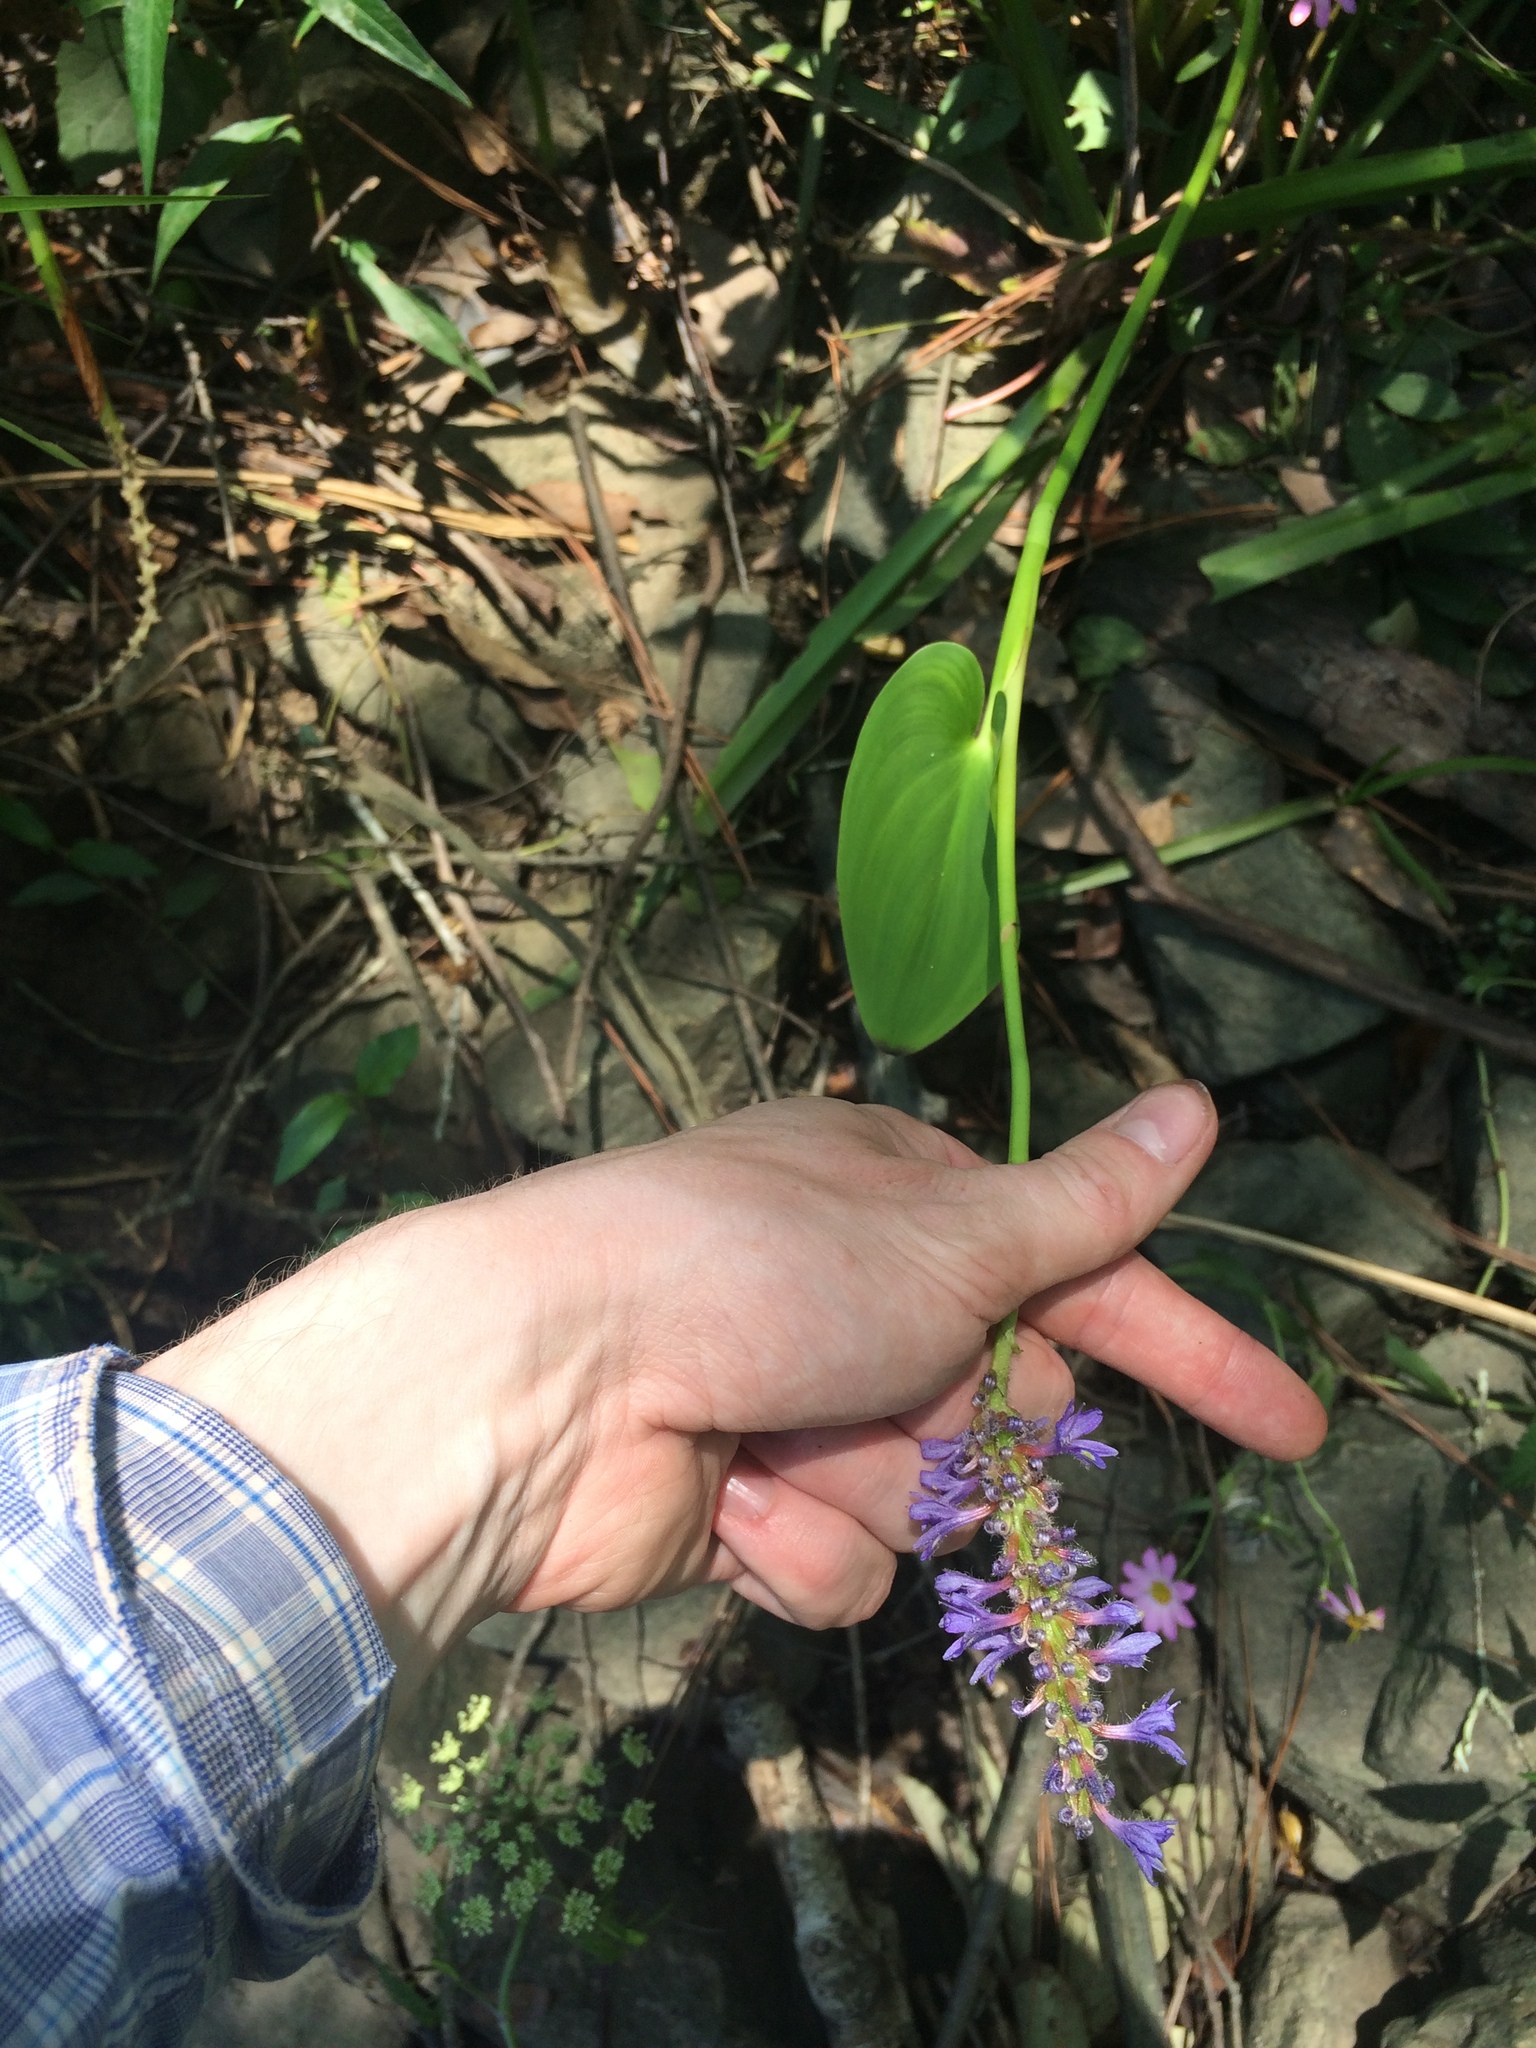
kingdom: Plantae
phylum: Tracheophyta
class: Liliopsida
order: Commelinales
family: Pontederiaceae
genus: Pontederia
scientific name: Pontederia cordata
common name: Pickerelweed
